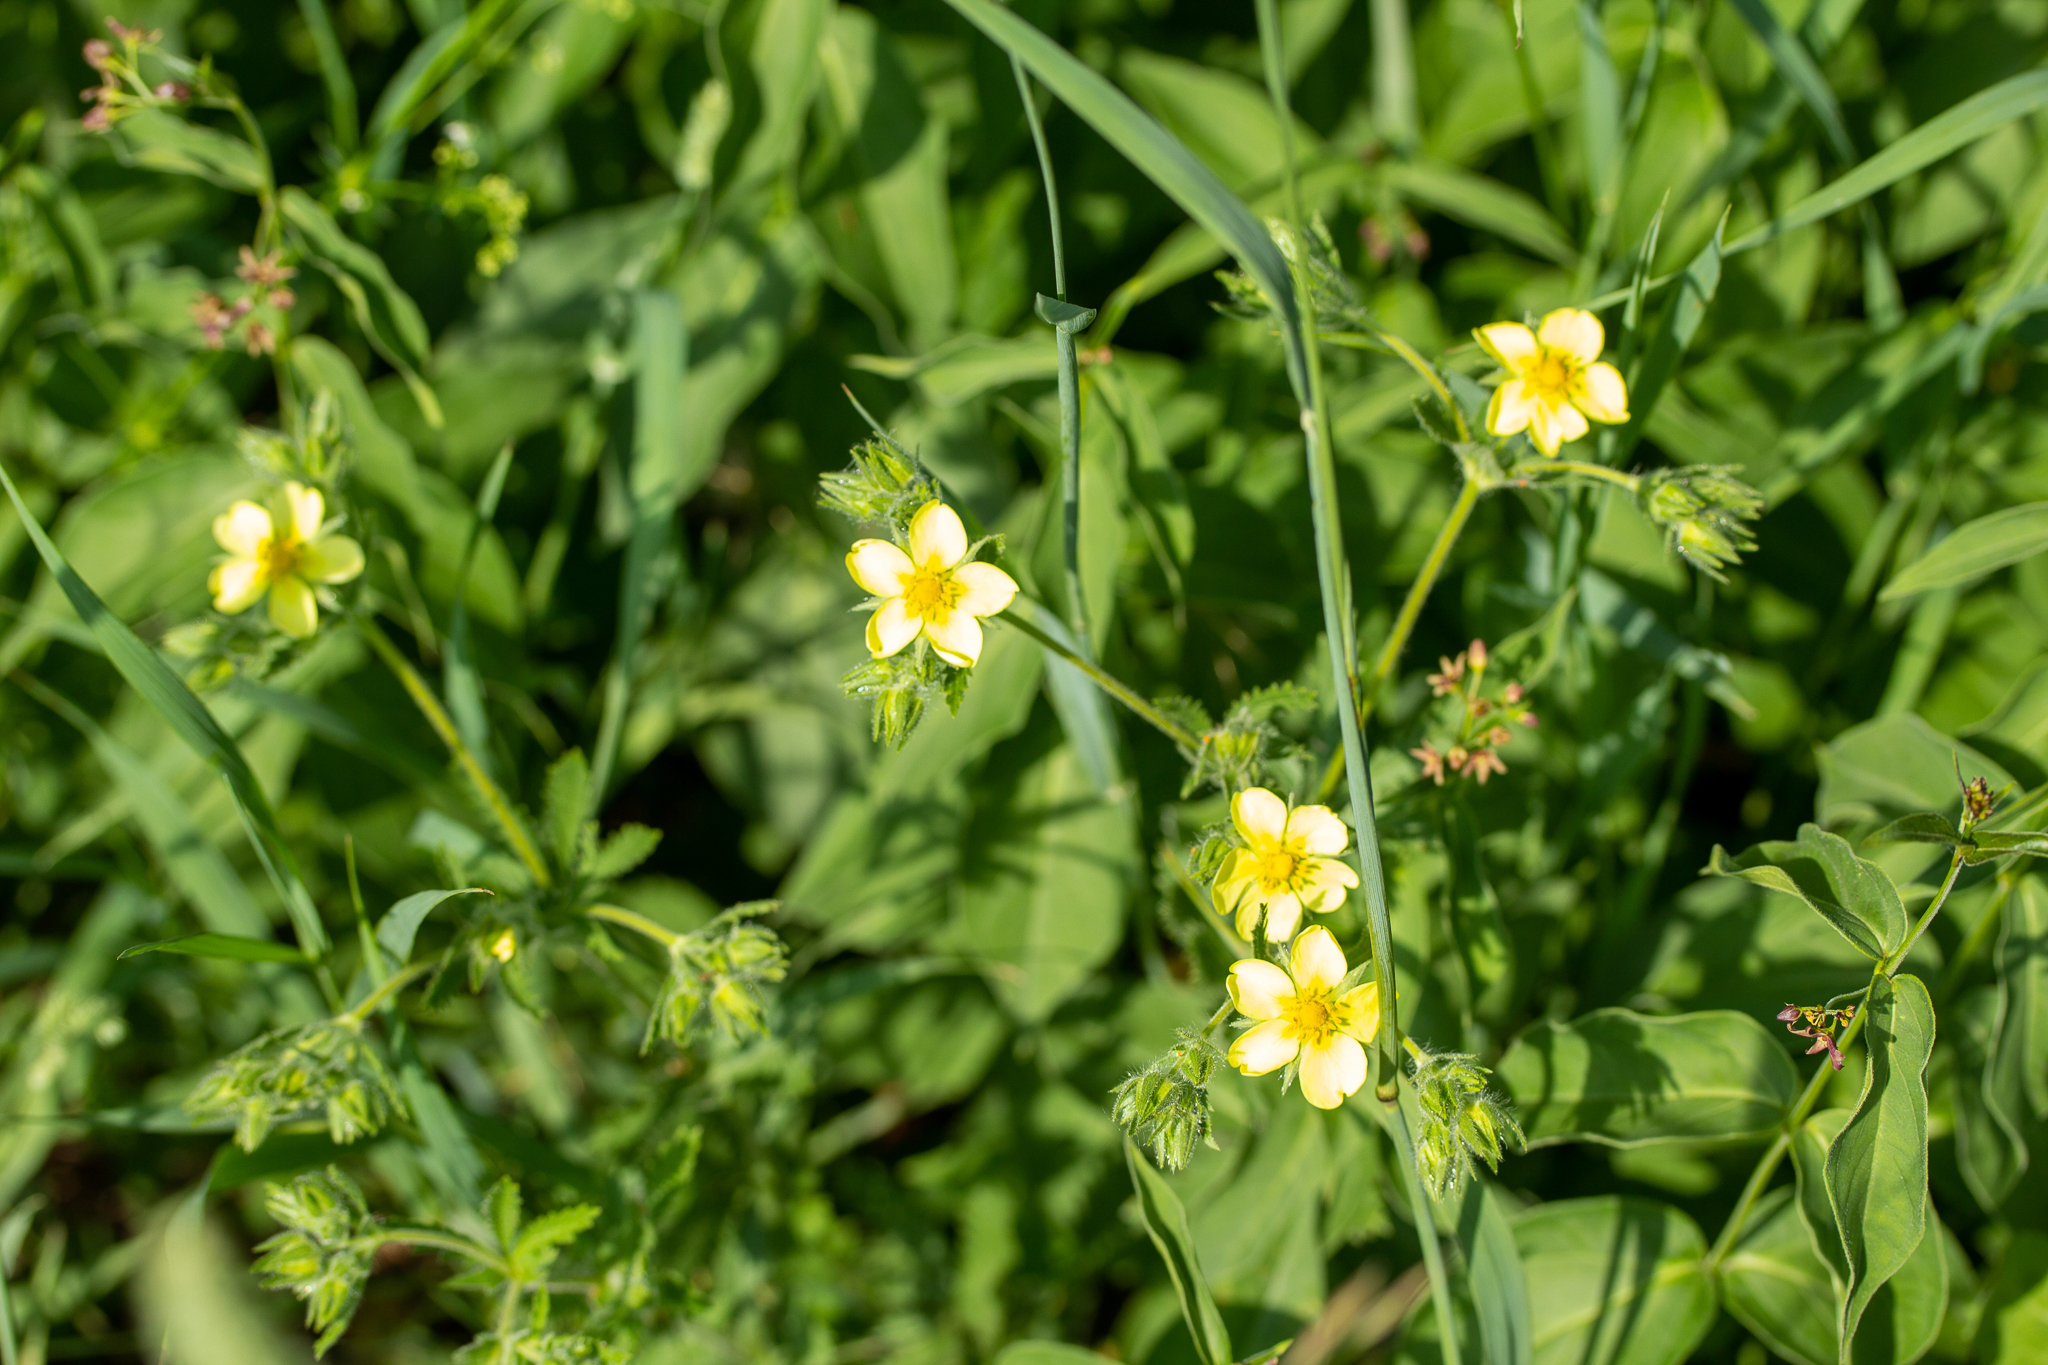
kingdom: Plantae
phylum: Tracheophyta
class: Magnoliopsida
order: Rosales
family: Rosaceae
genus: Potentilla
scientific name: Potentilla recta
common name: Sulphur cinquefoil
